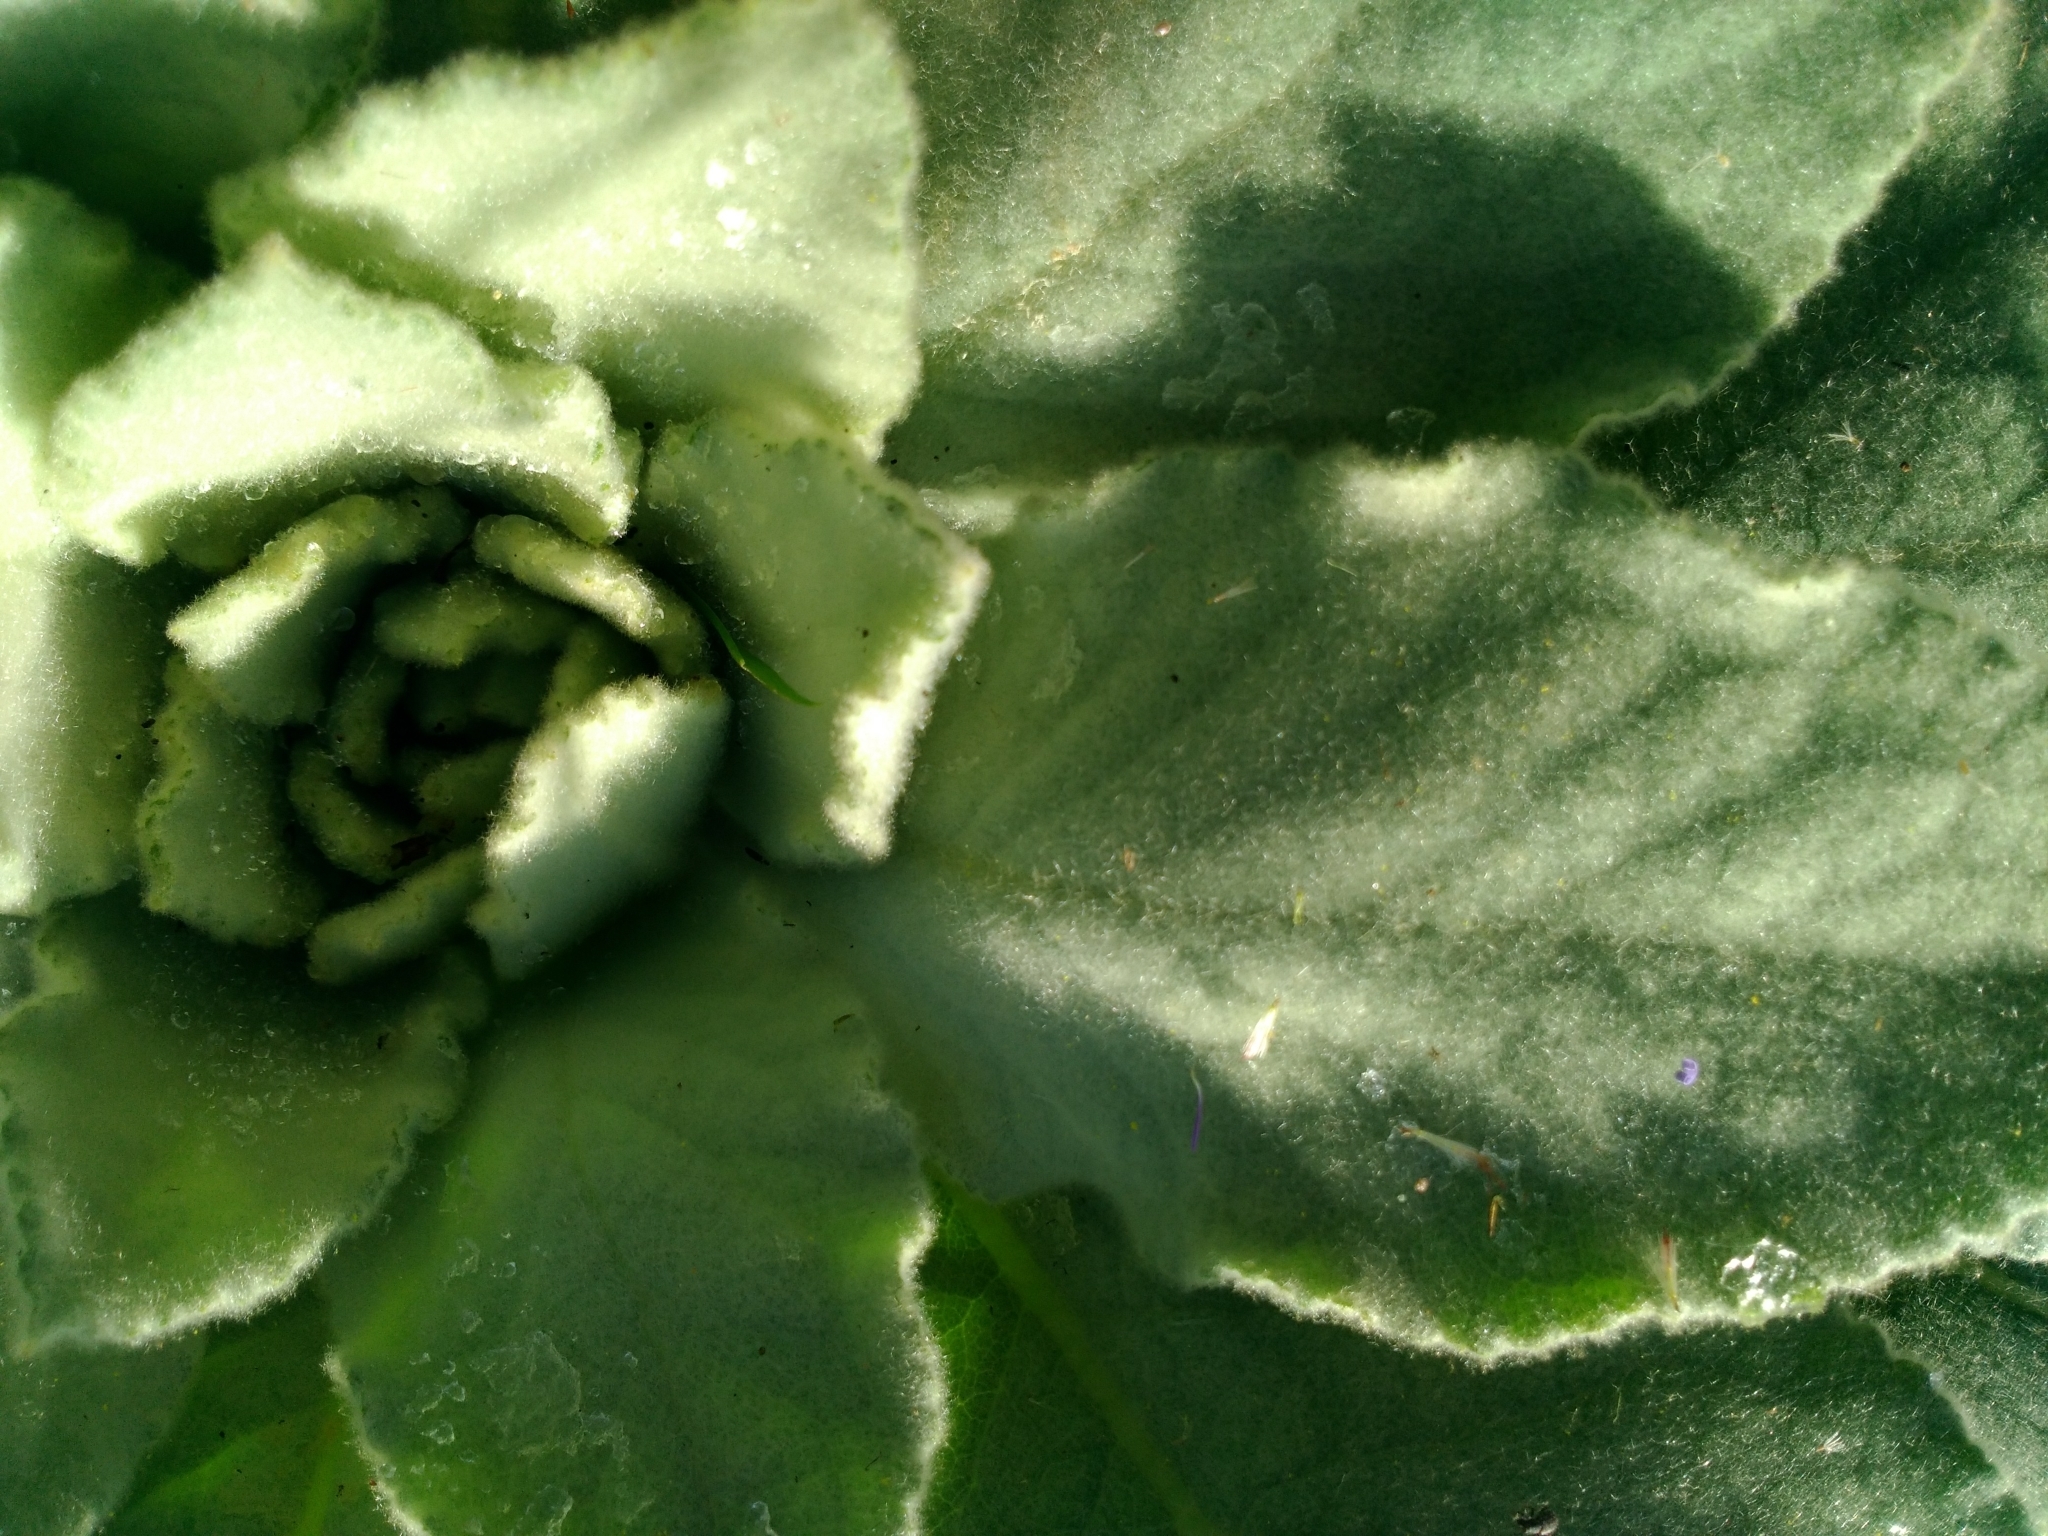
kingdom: Plantae
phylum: Tracheophyta
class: Magnoliopsida
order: Lamiales
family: Scrophulariaceae
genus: Verbascum
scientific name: Verbascum thapsus
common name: Common mullein
